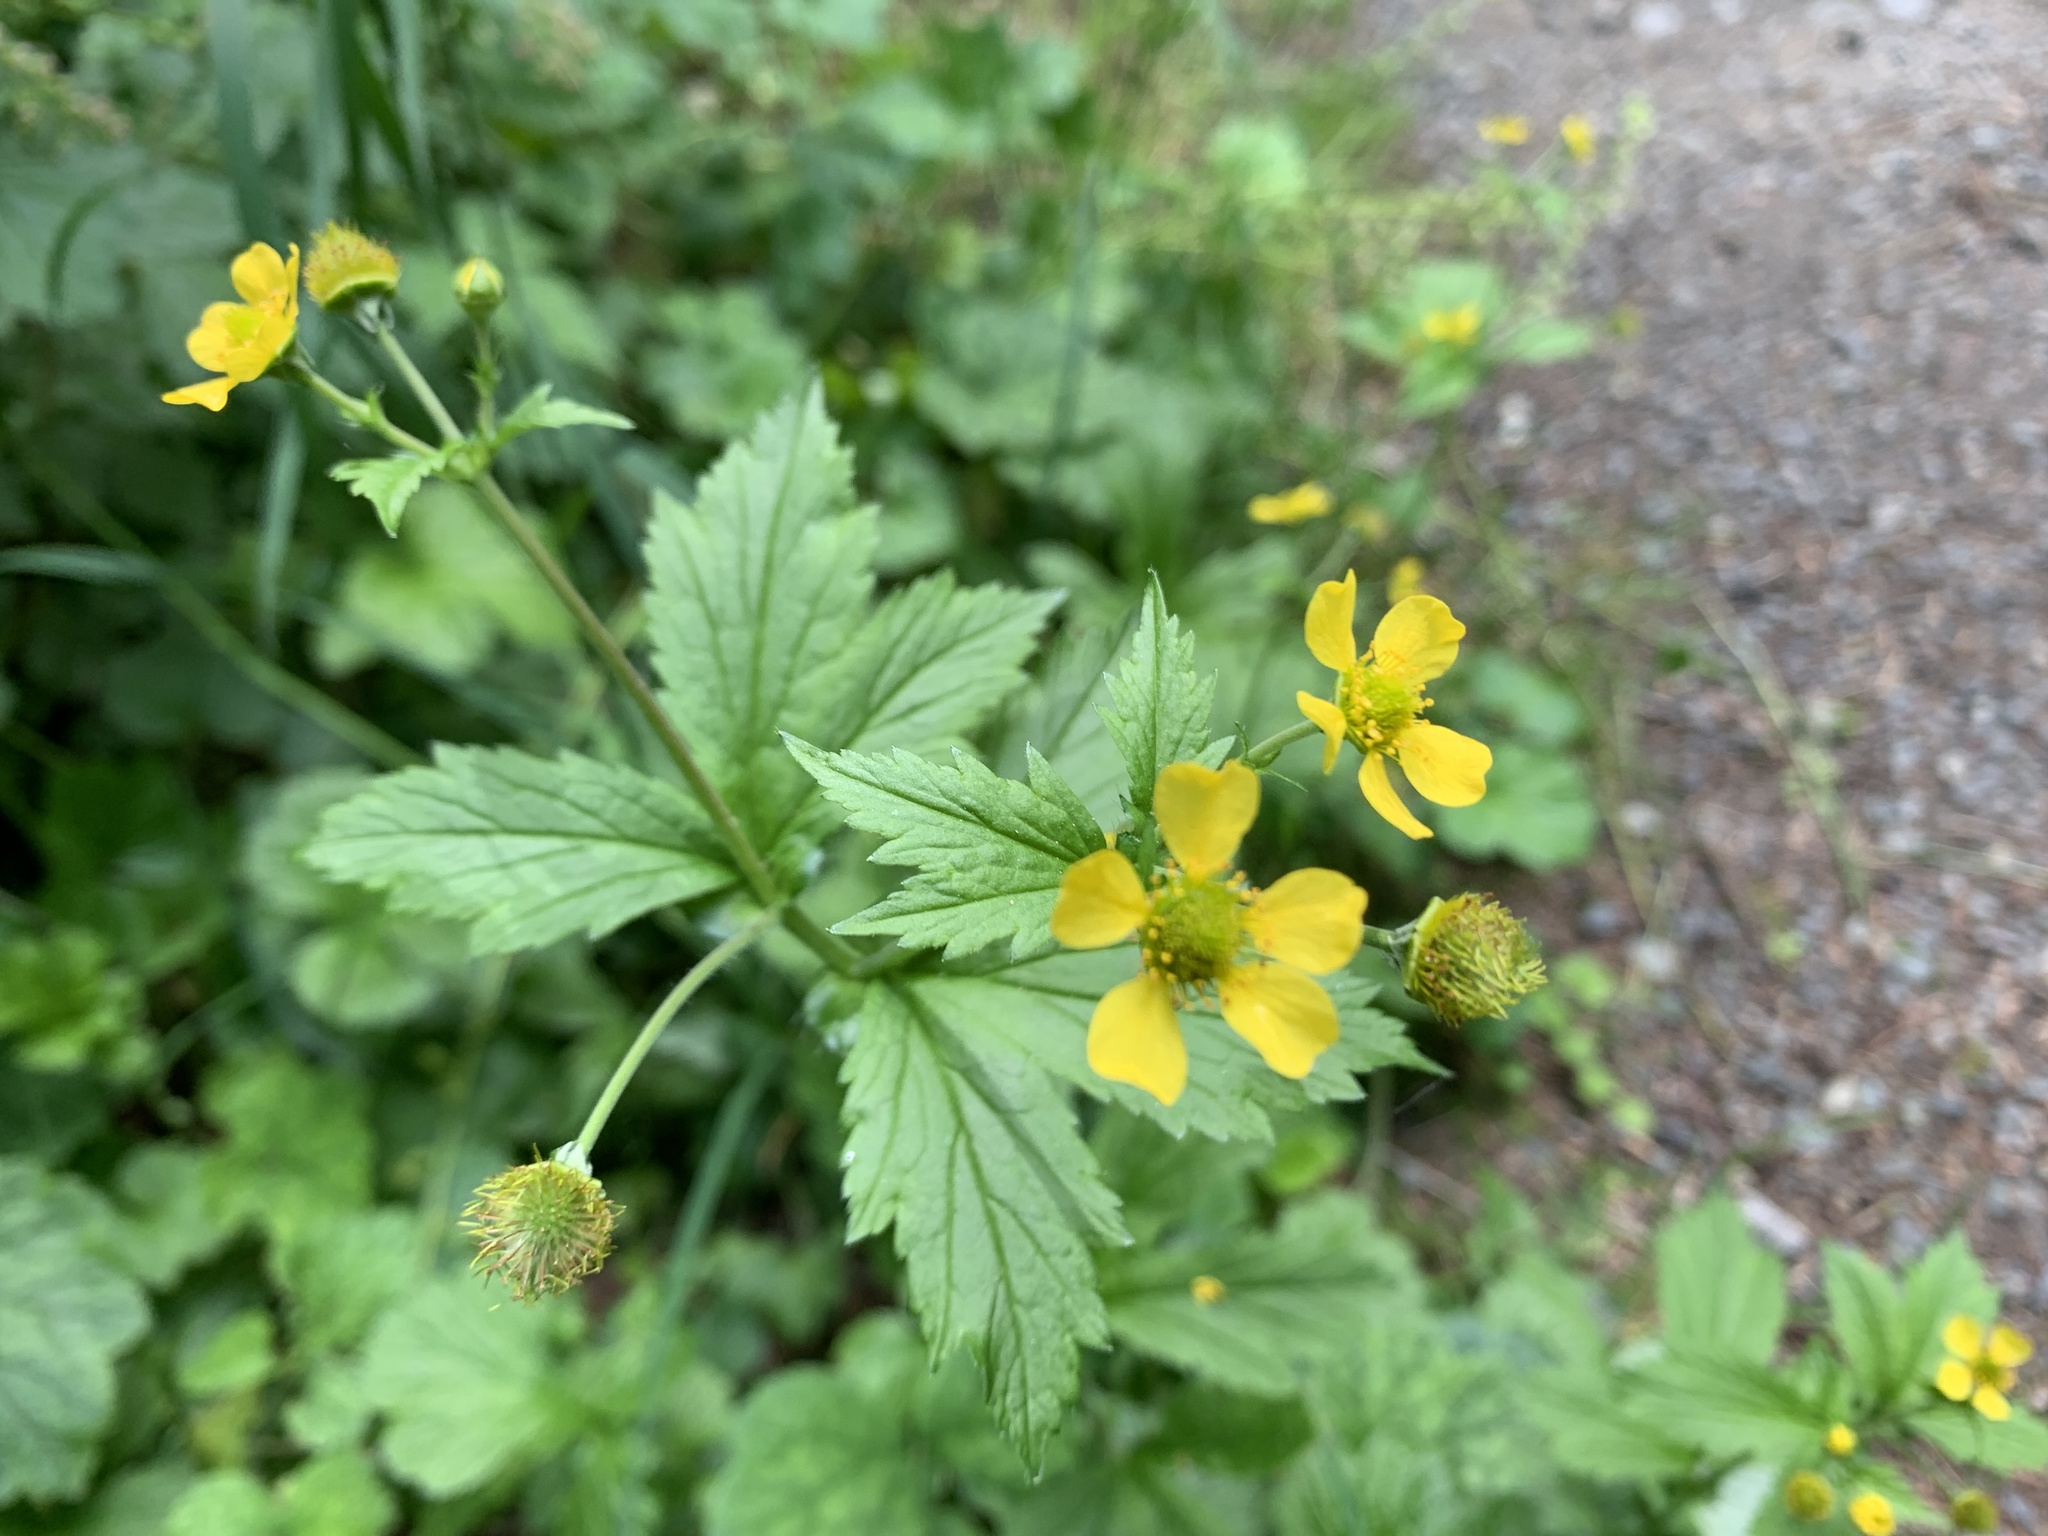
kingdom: Plantae
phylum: Tracheophyta
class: Magnoliopsida
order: Rosales
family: Rosaceae
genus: Geum
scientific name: Geum macrophyllum
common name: Large-leaved avens
